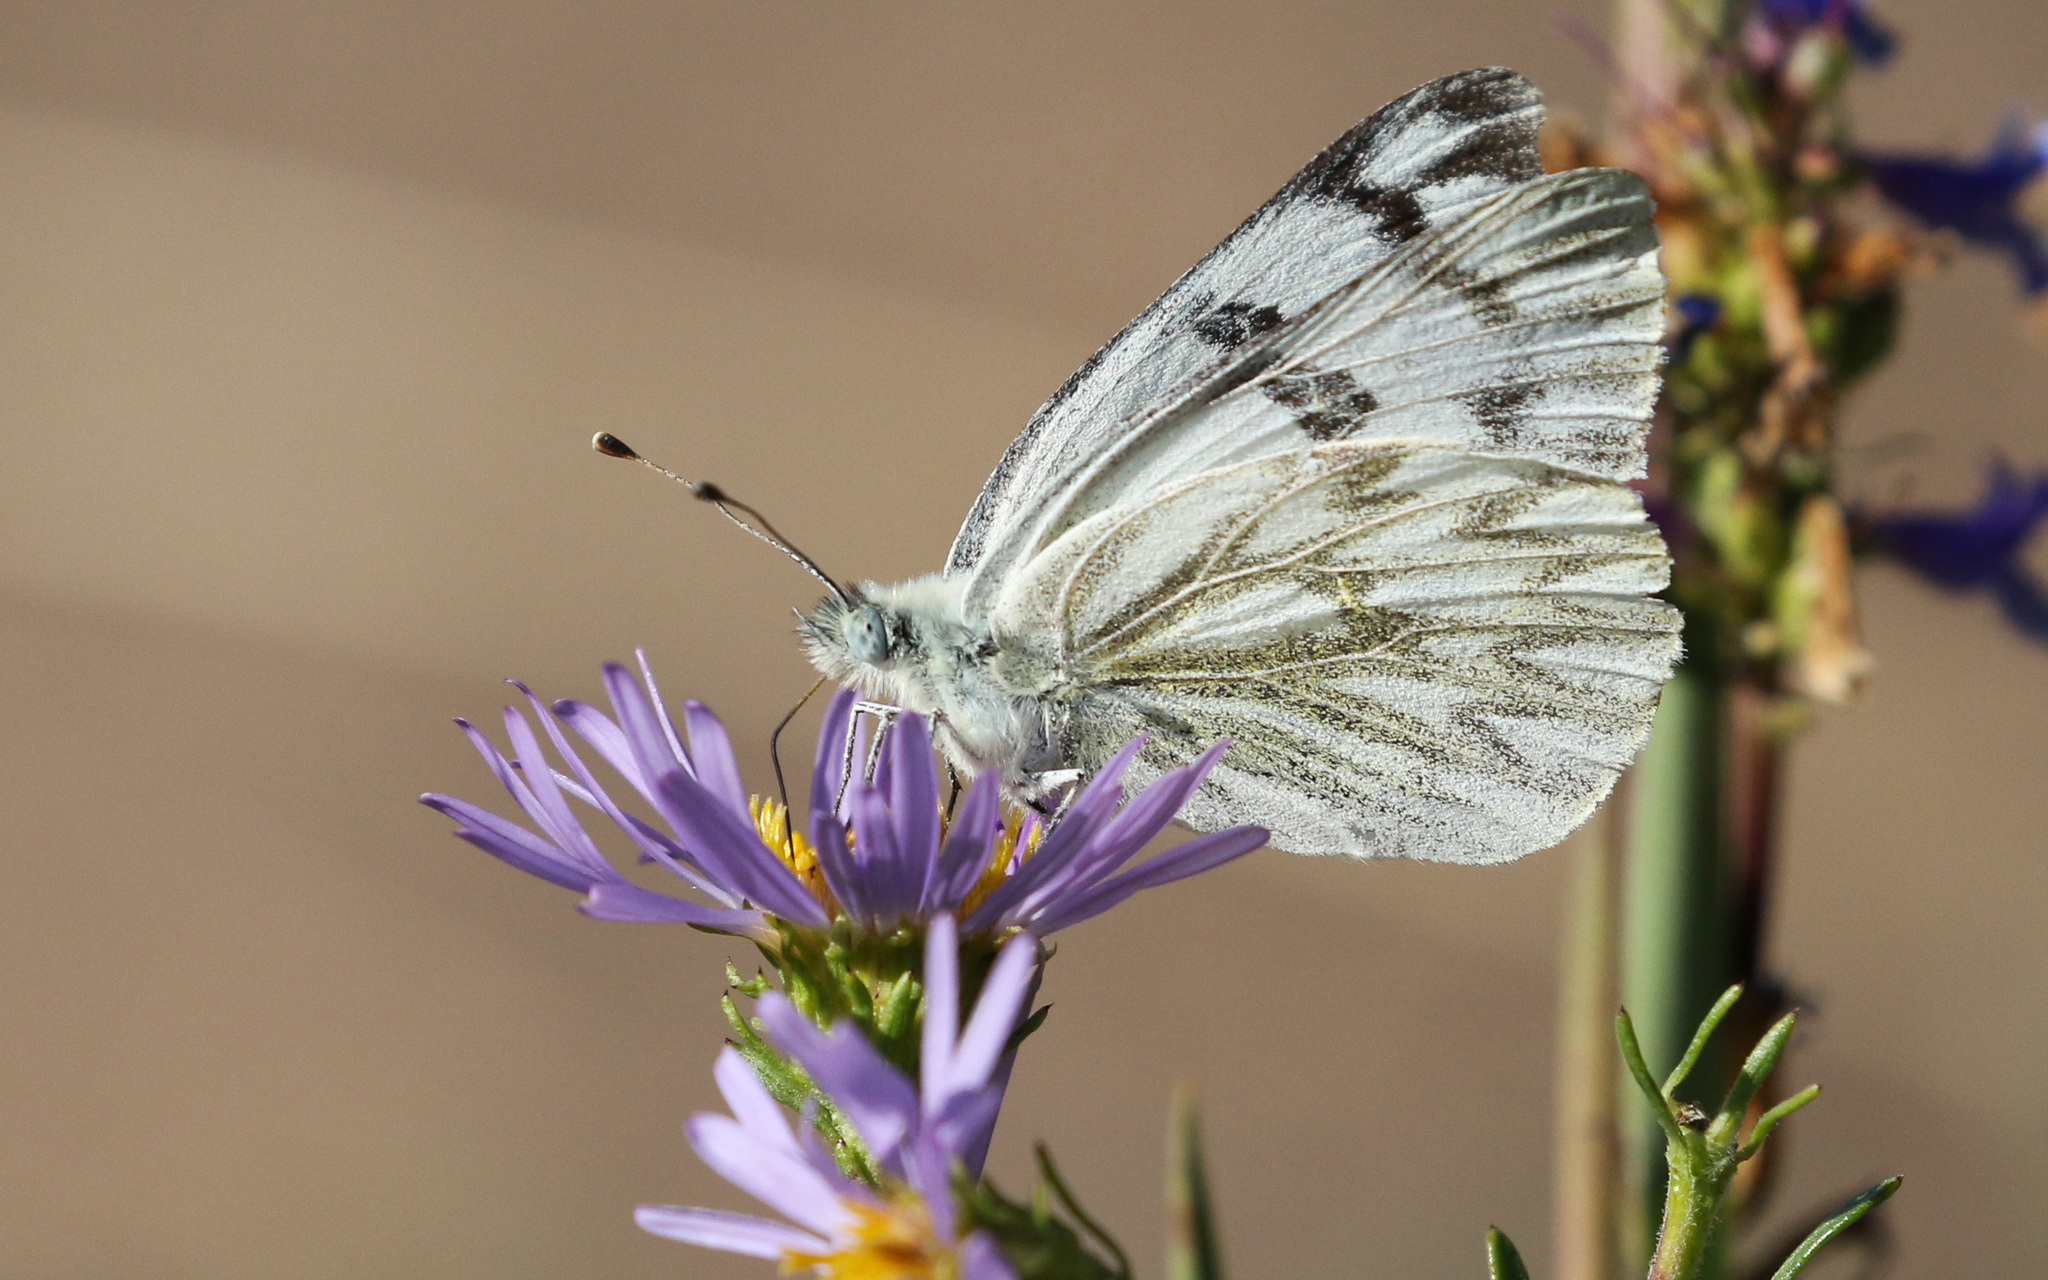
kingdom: Animalia
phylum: Arthropoda
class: Insecta
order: Lepidoptera
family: Pieridae
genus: Pontia
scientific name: Pontia occidentalis
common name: Western white
